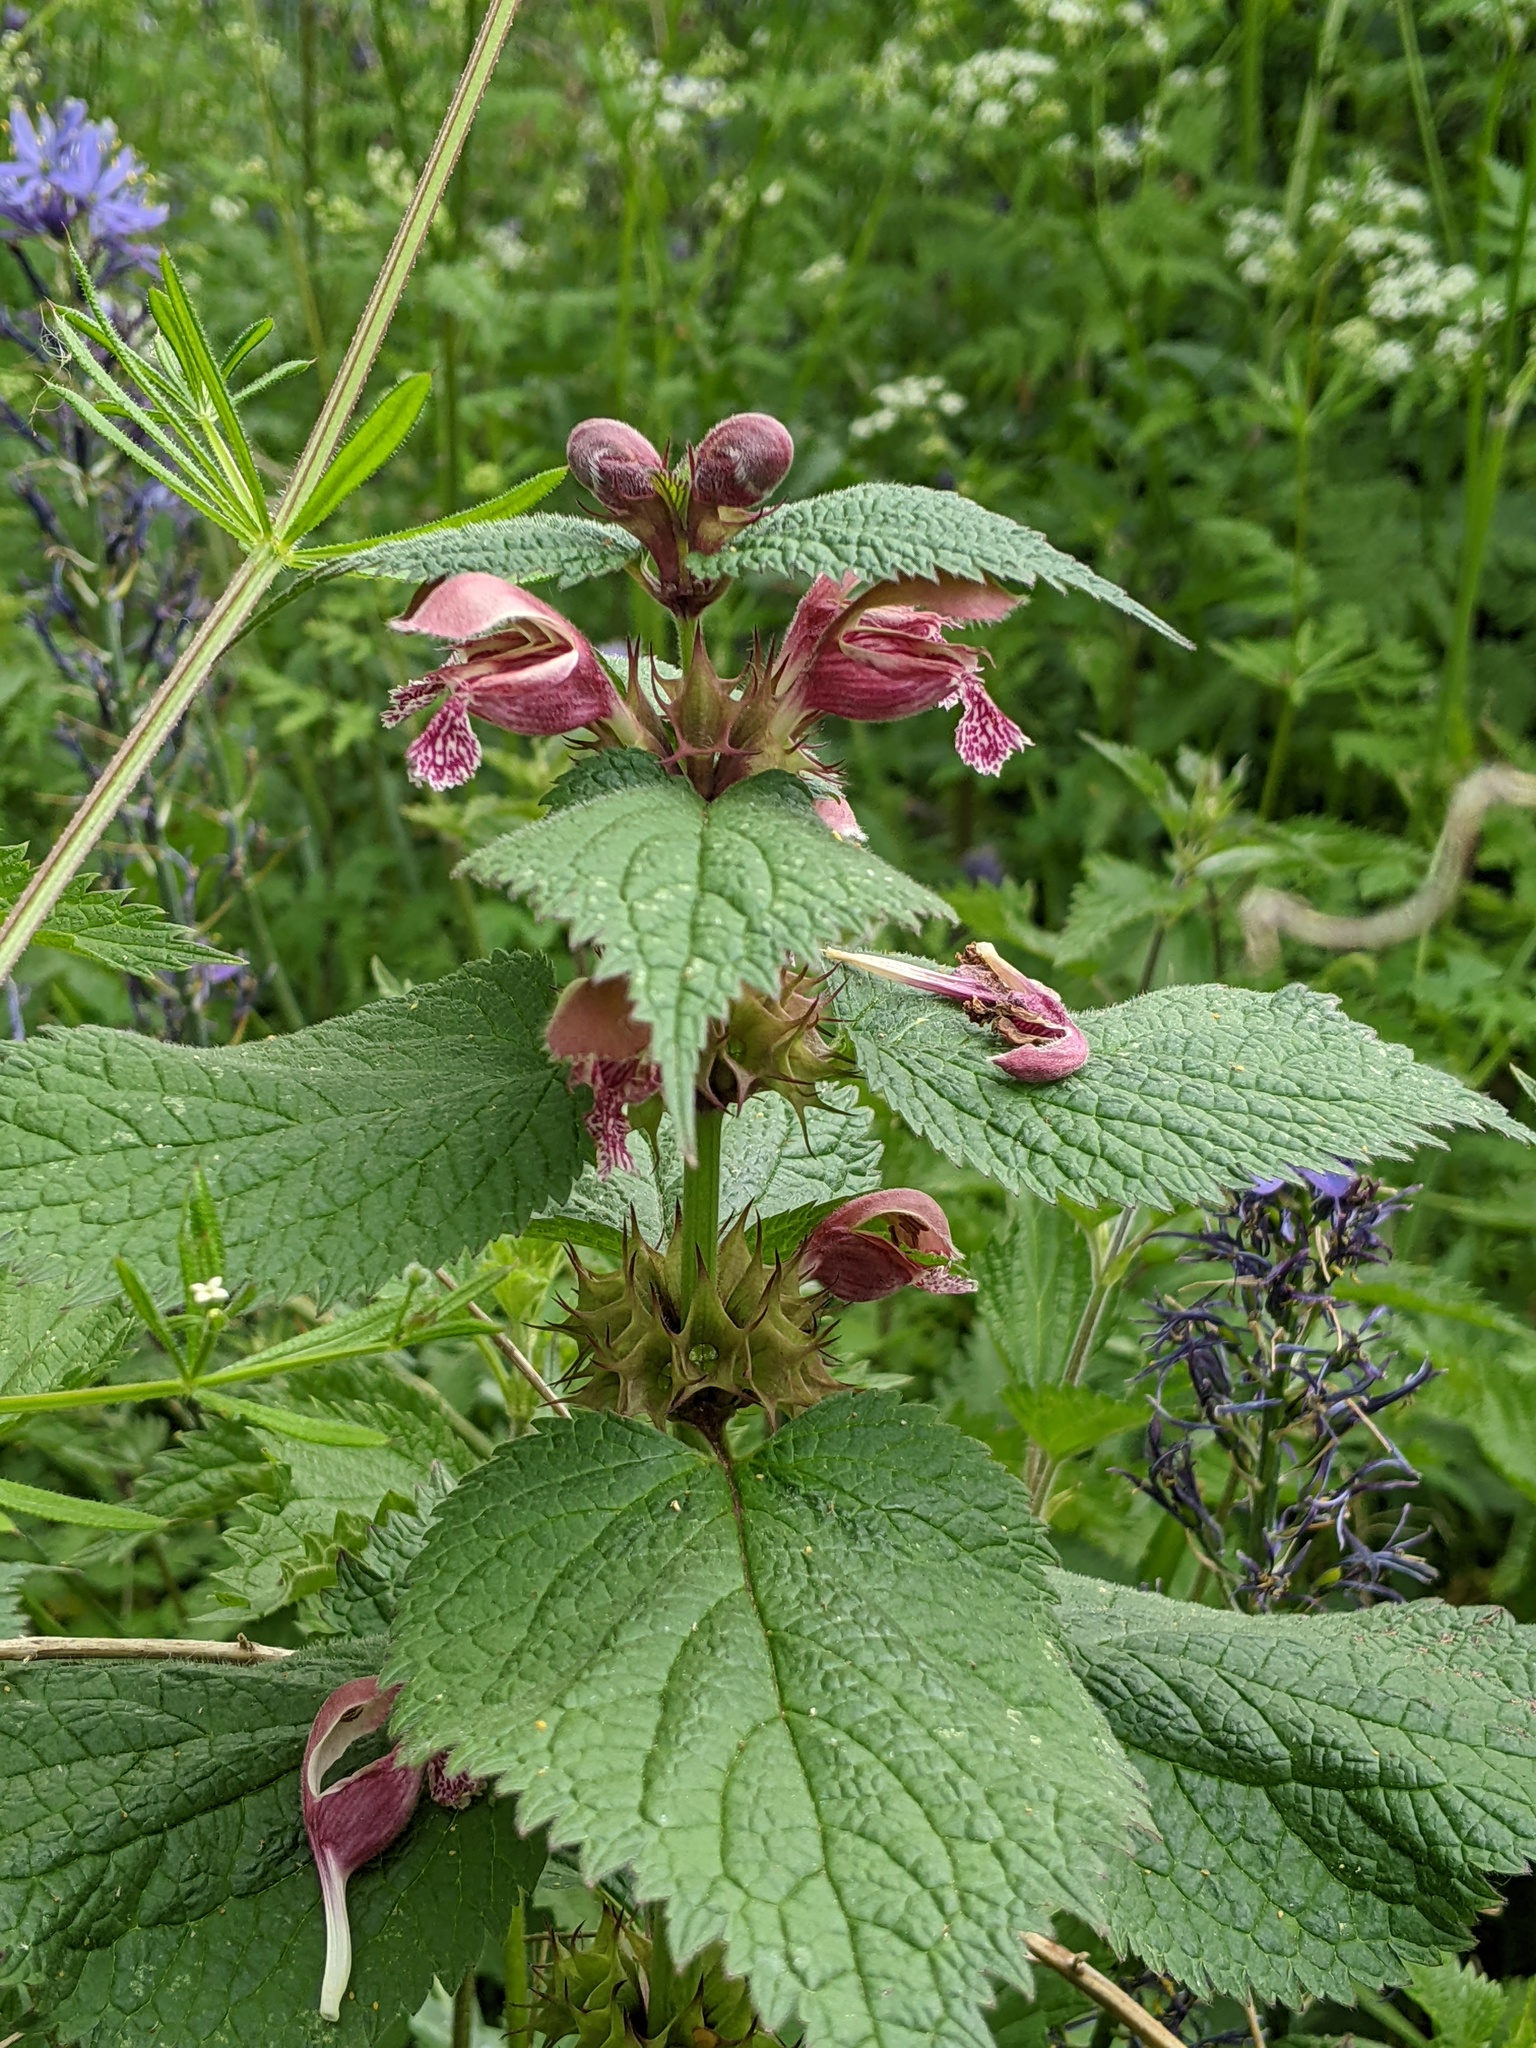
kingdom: Plantae
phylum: Tracheophyta
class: Magnoliopsida
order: Lamiales
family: Lamiaceae
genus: Lamium
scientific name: Lamium orvala
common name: Balm-leaved archangel
